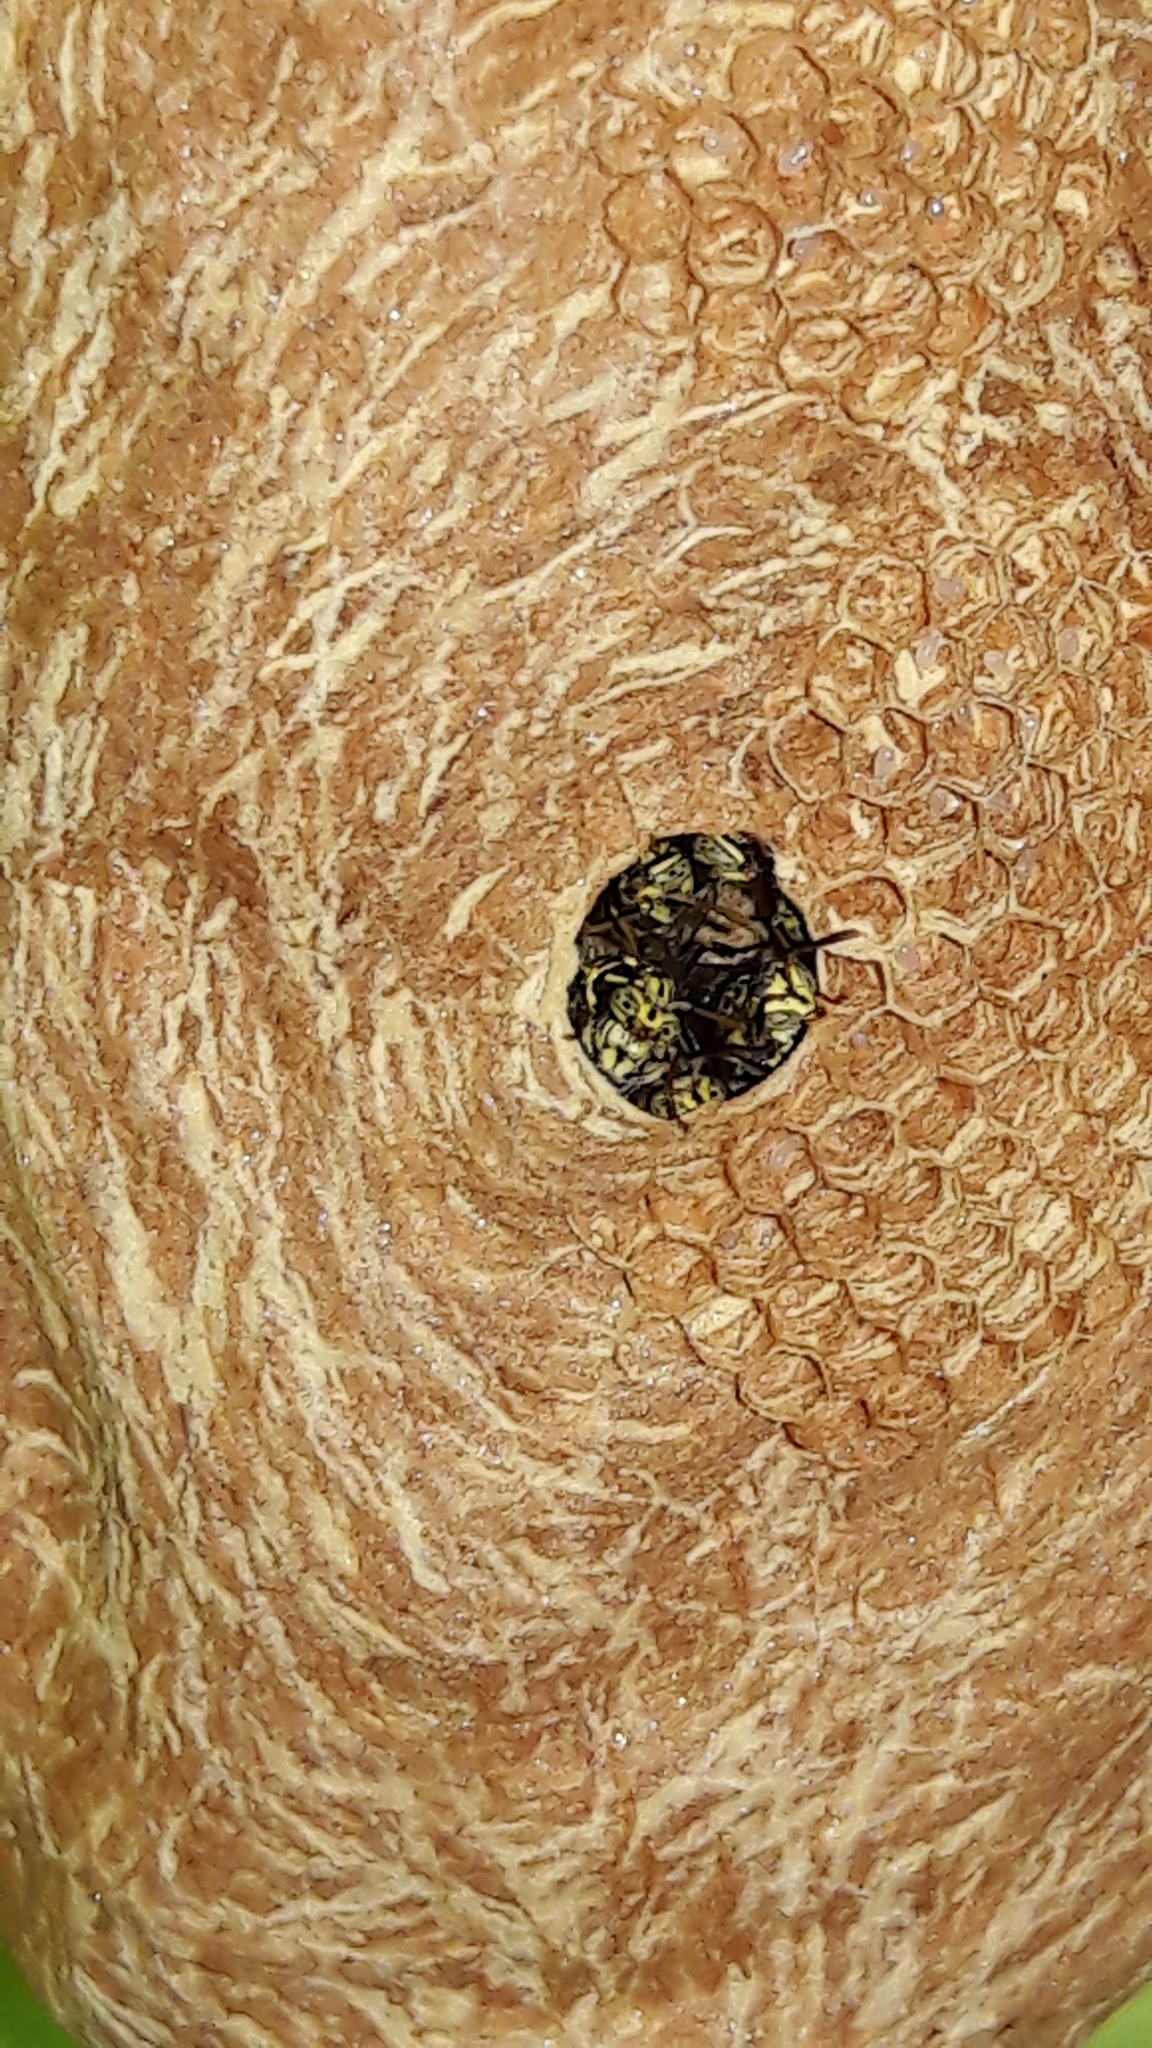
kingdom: Animalia
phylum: Arthropoda
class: Insecta
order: Hymenoptera
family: Vespidae
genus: Protopolybia
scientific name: Protopolybia exigua
